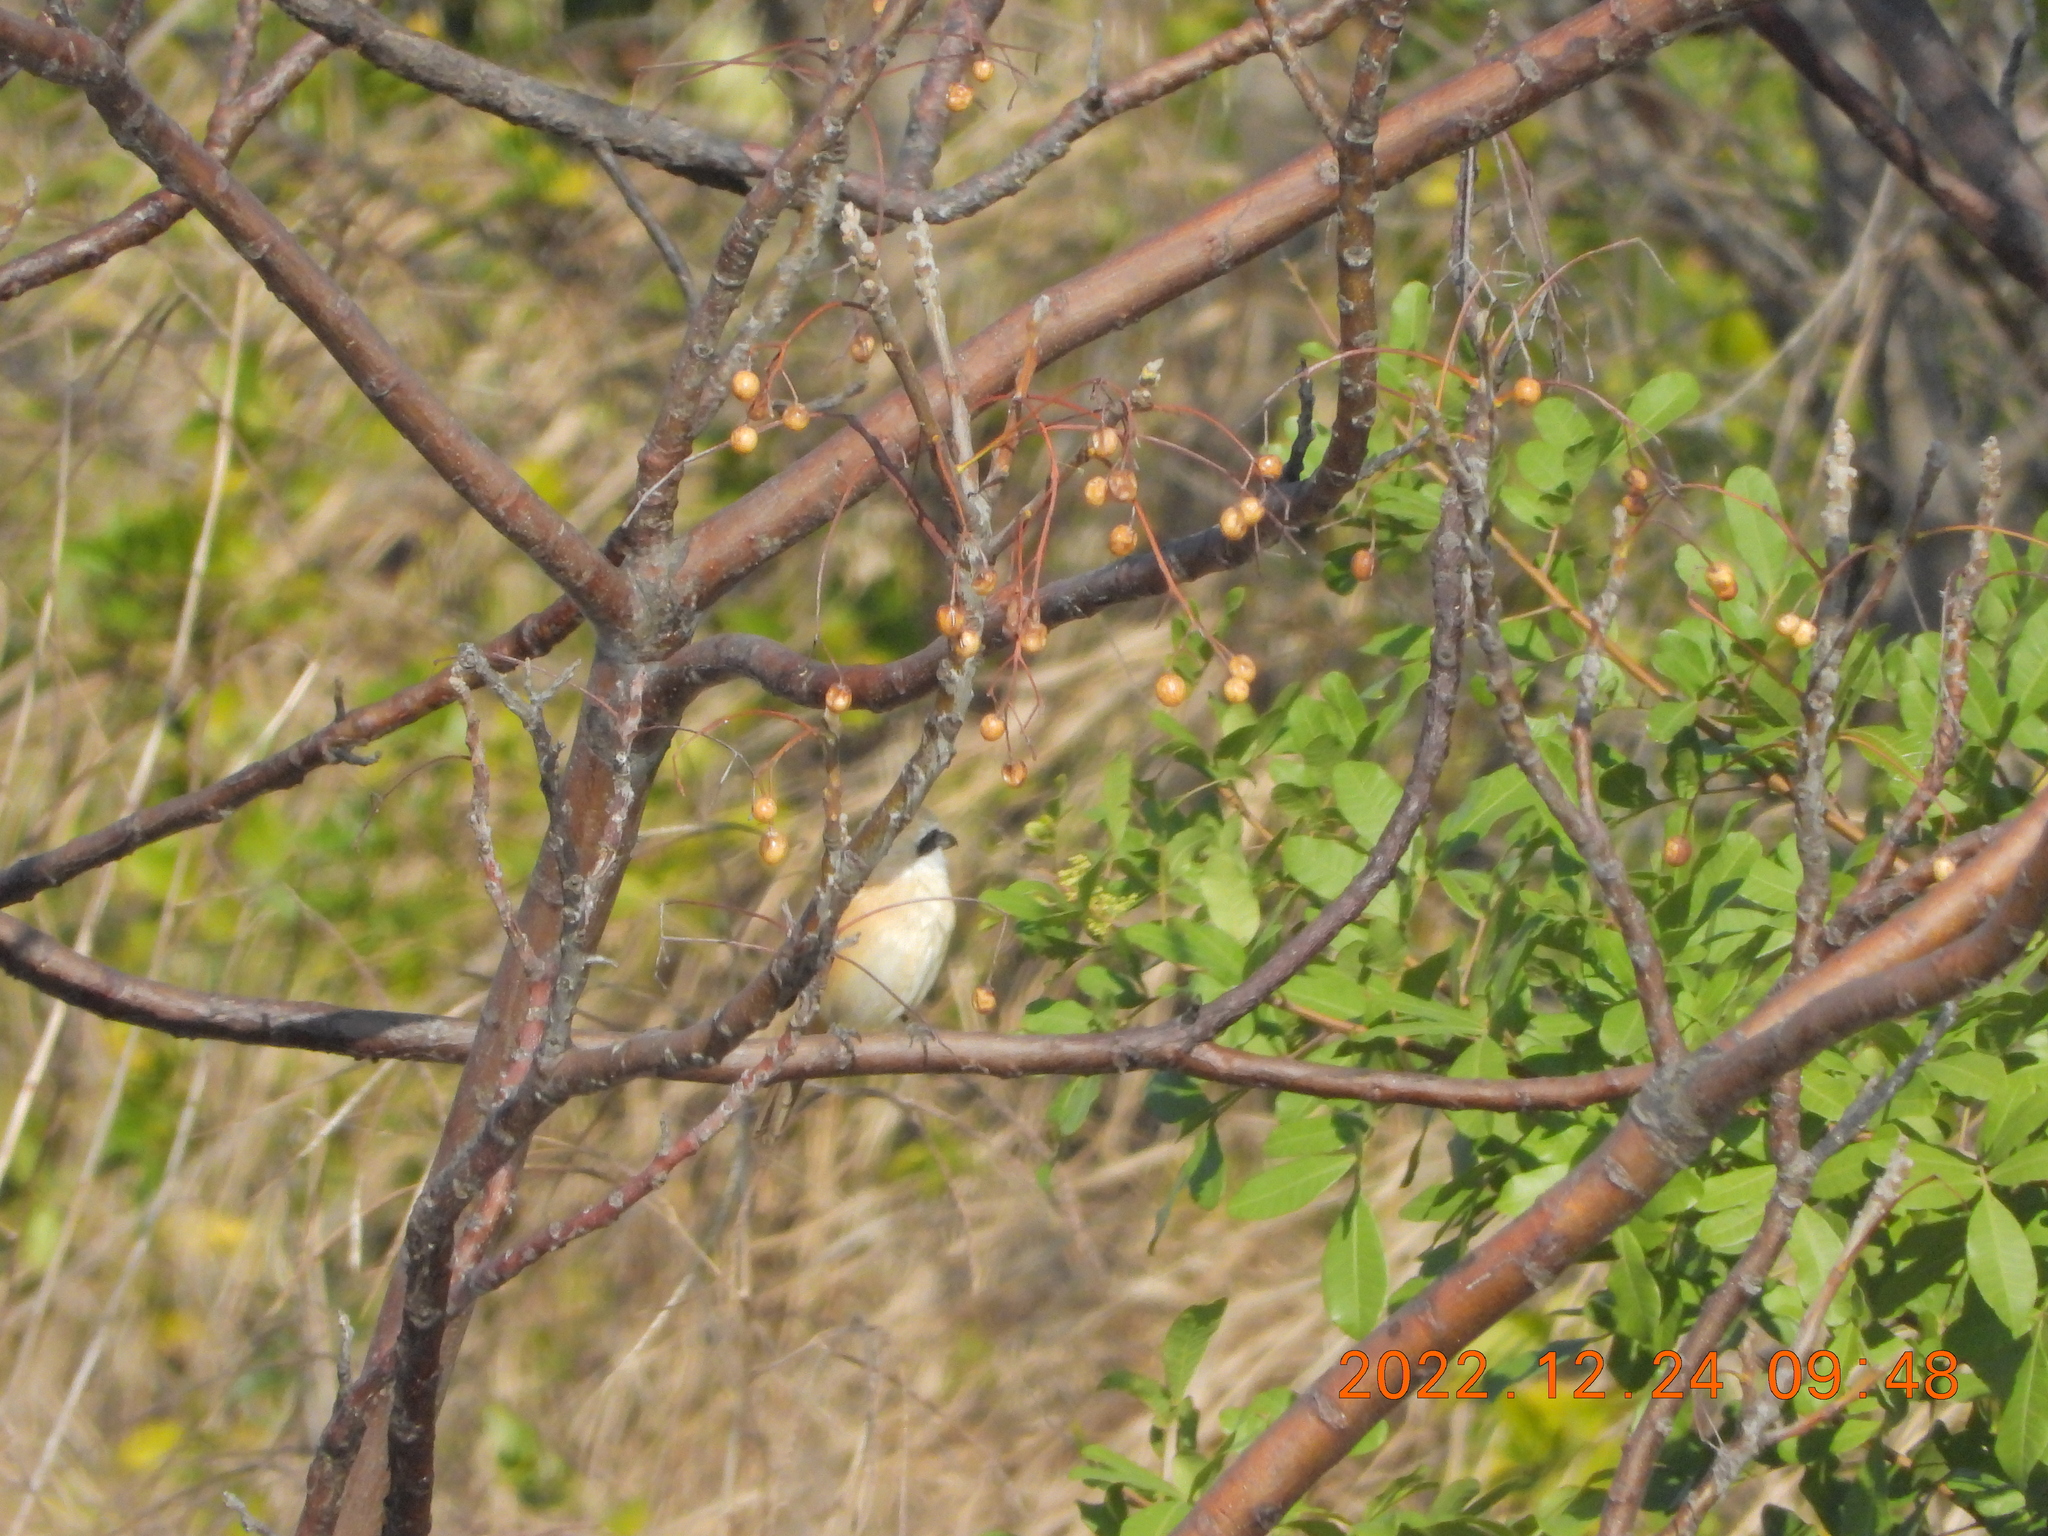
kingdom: Animalia
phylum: Chordata
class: Aves
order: Passeriformes
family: Laniidae
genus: Lanius
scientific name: Lanius cristatus
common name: Brown shrike
